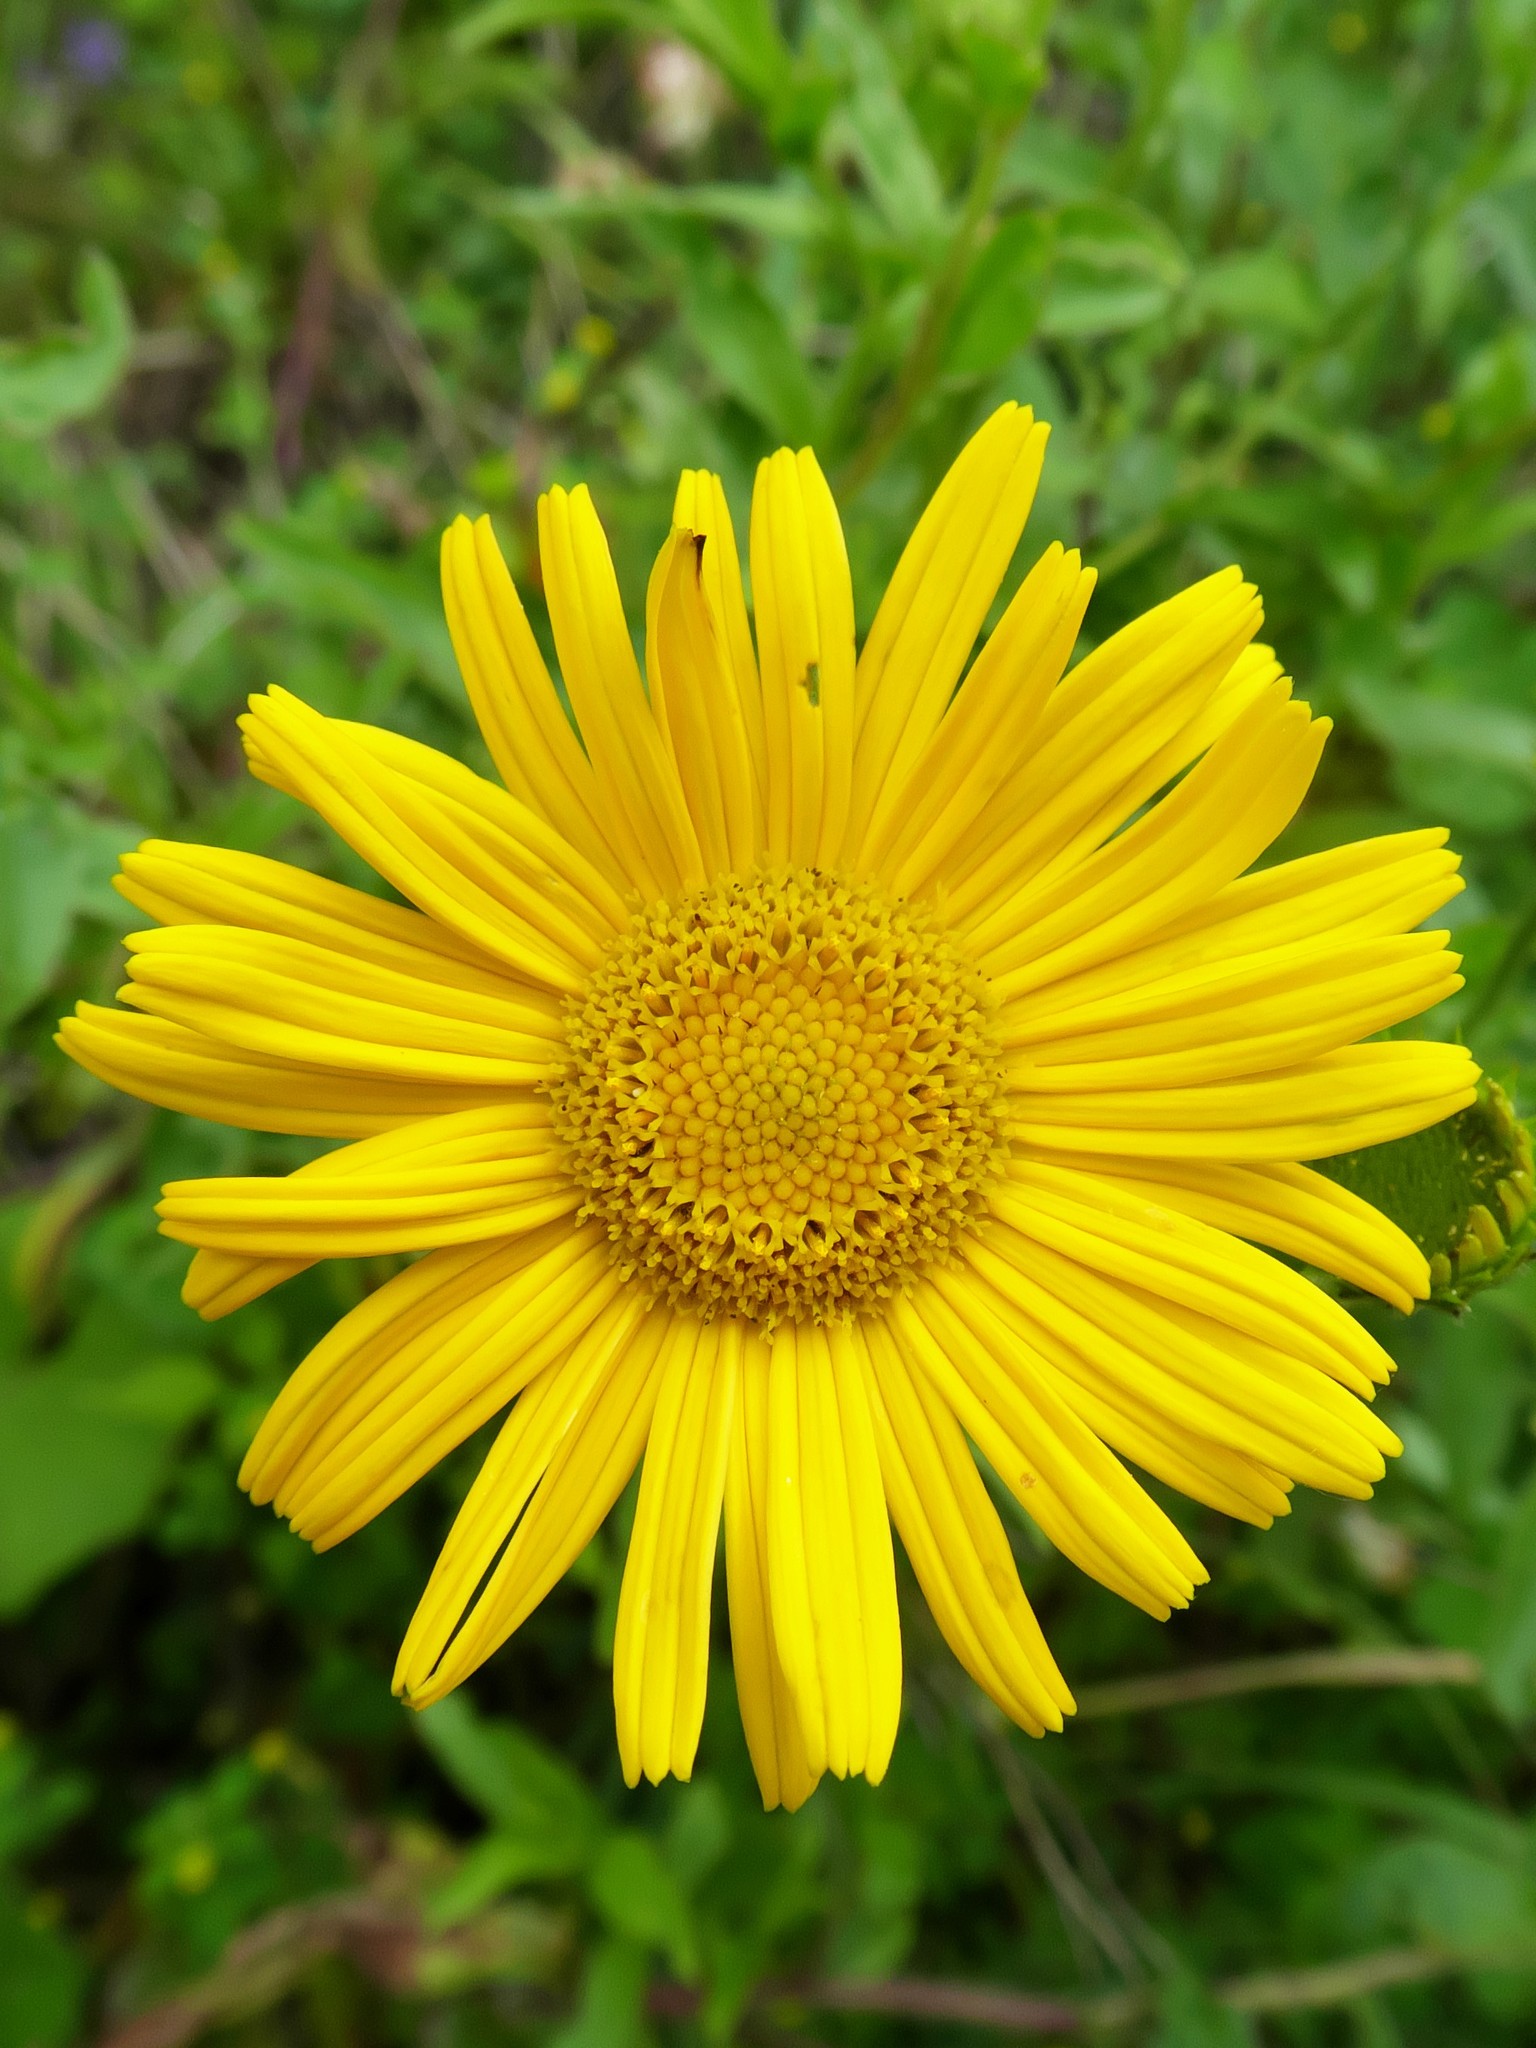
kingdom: Plantae
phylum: Tracheophyta
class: Magnoliopsida
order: Asterales
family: Asteraceae
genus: Buphthalmum
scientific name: Buphthalmum salicifolium
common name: Willow-leaved yellow-oxeye
